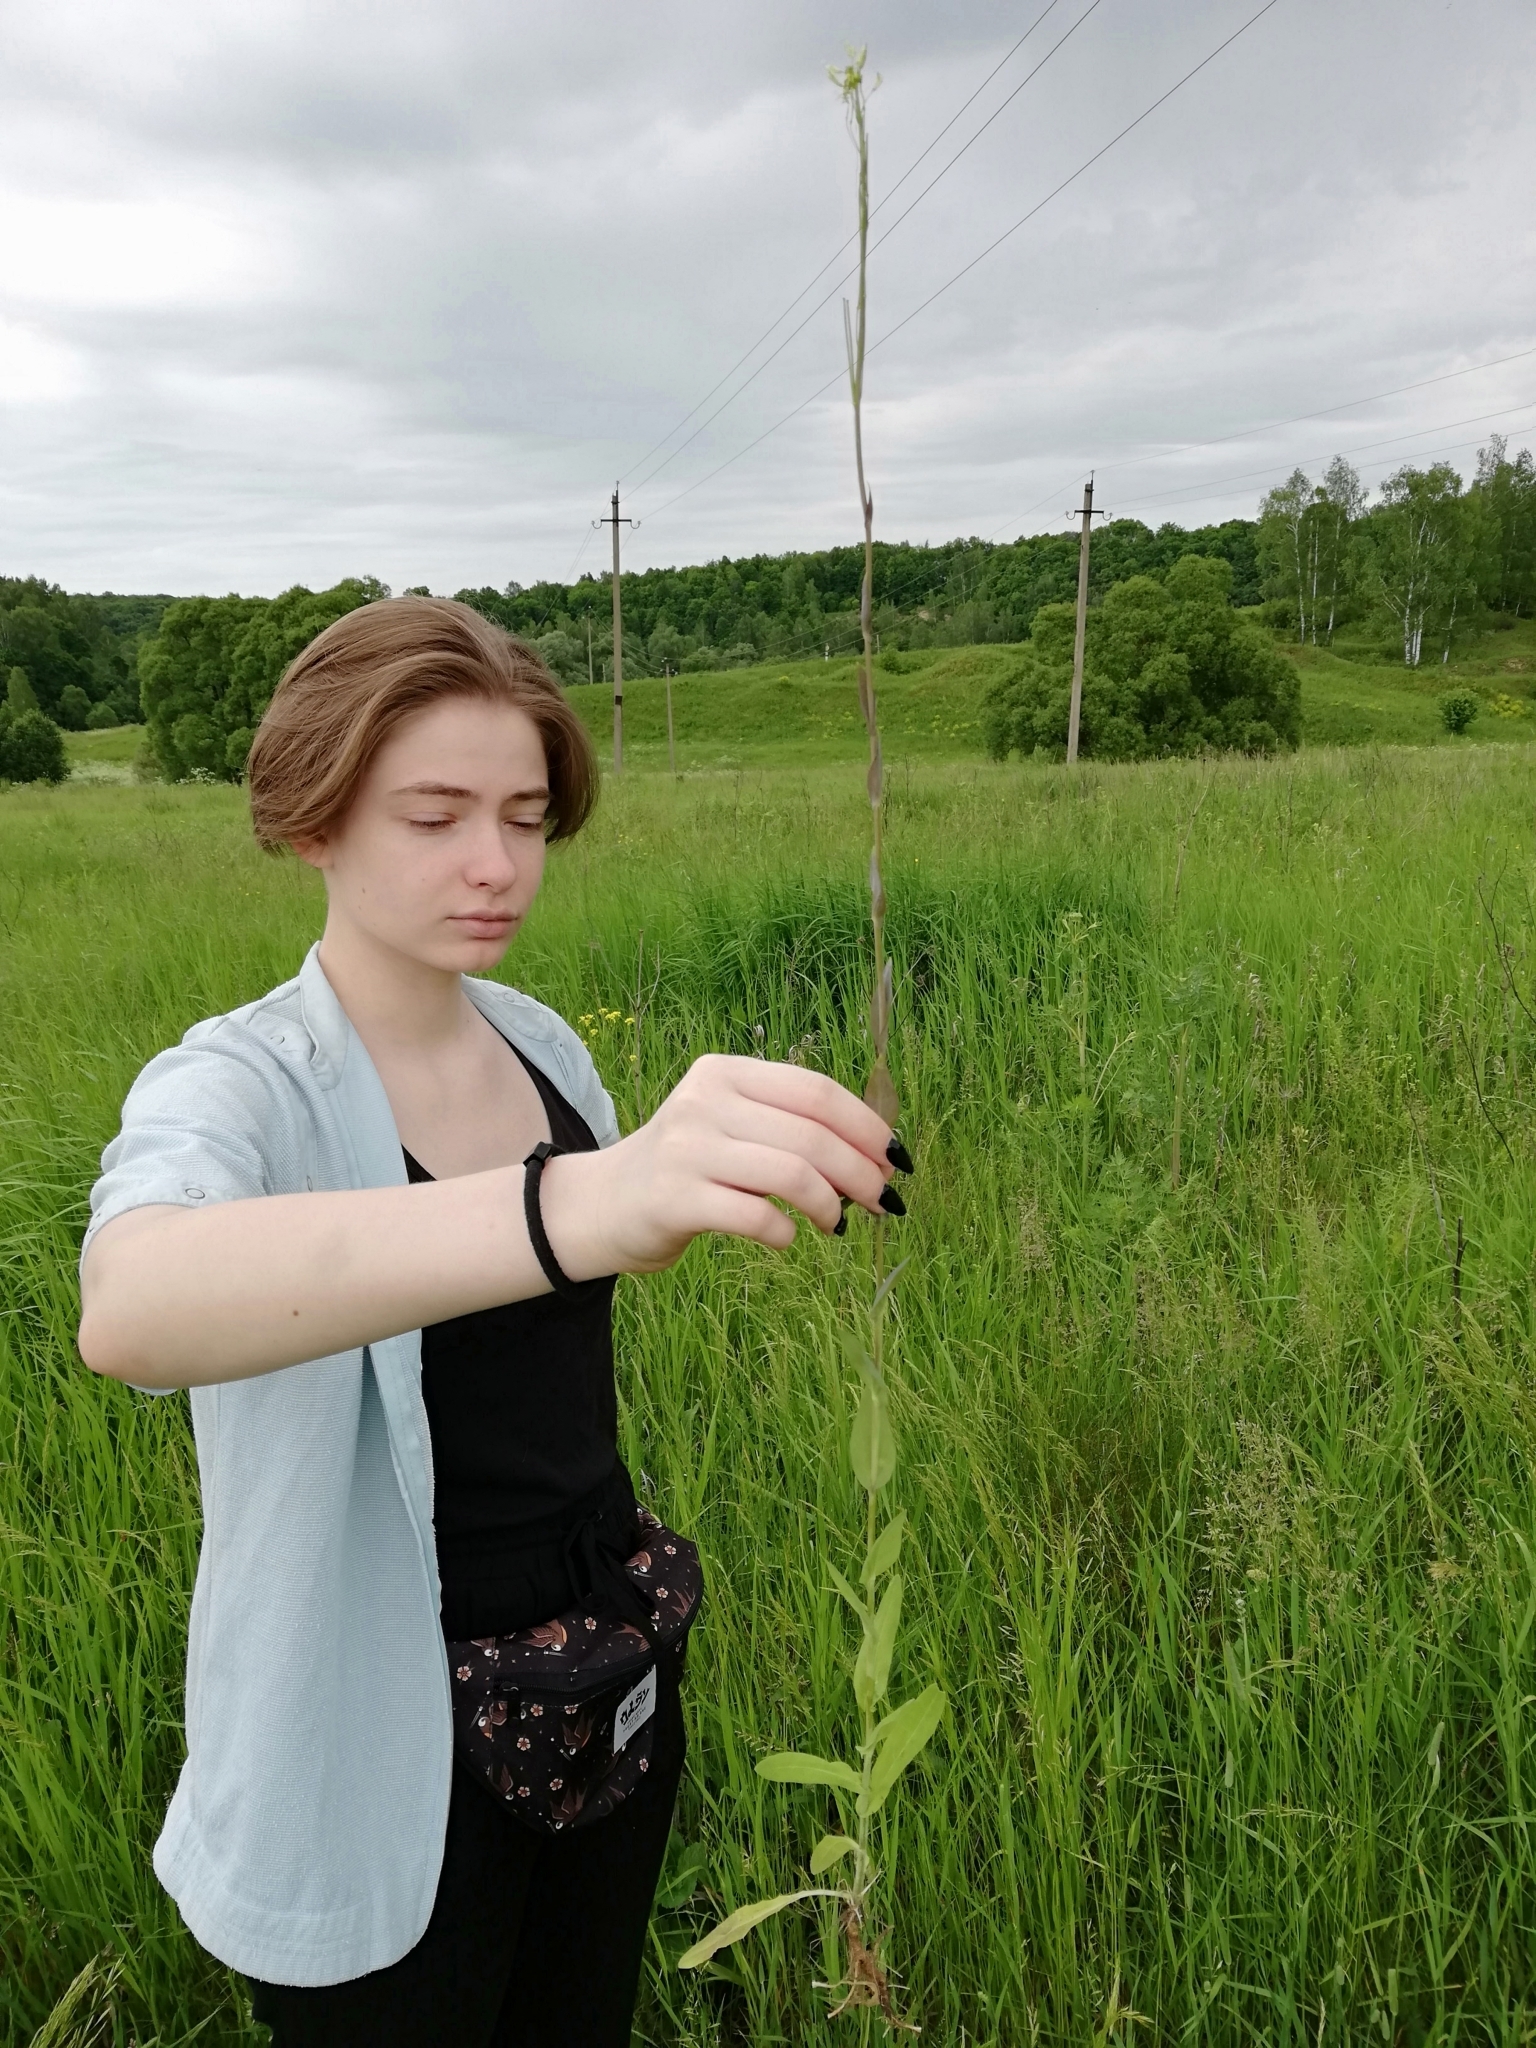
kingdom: Plantae
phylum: Tracheophyta
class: Magnoliopsida
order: Brassicales
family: Brassicaceae
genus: Turritis
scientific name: Turritis glabra
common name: Tower rockcress
